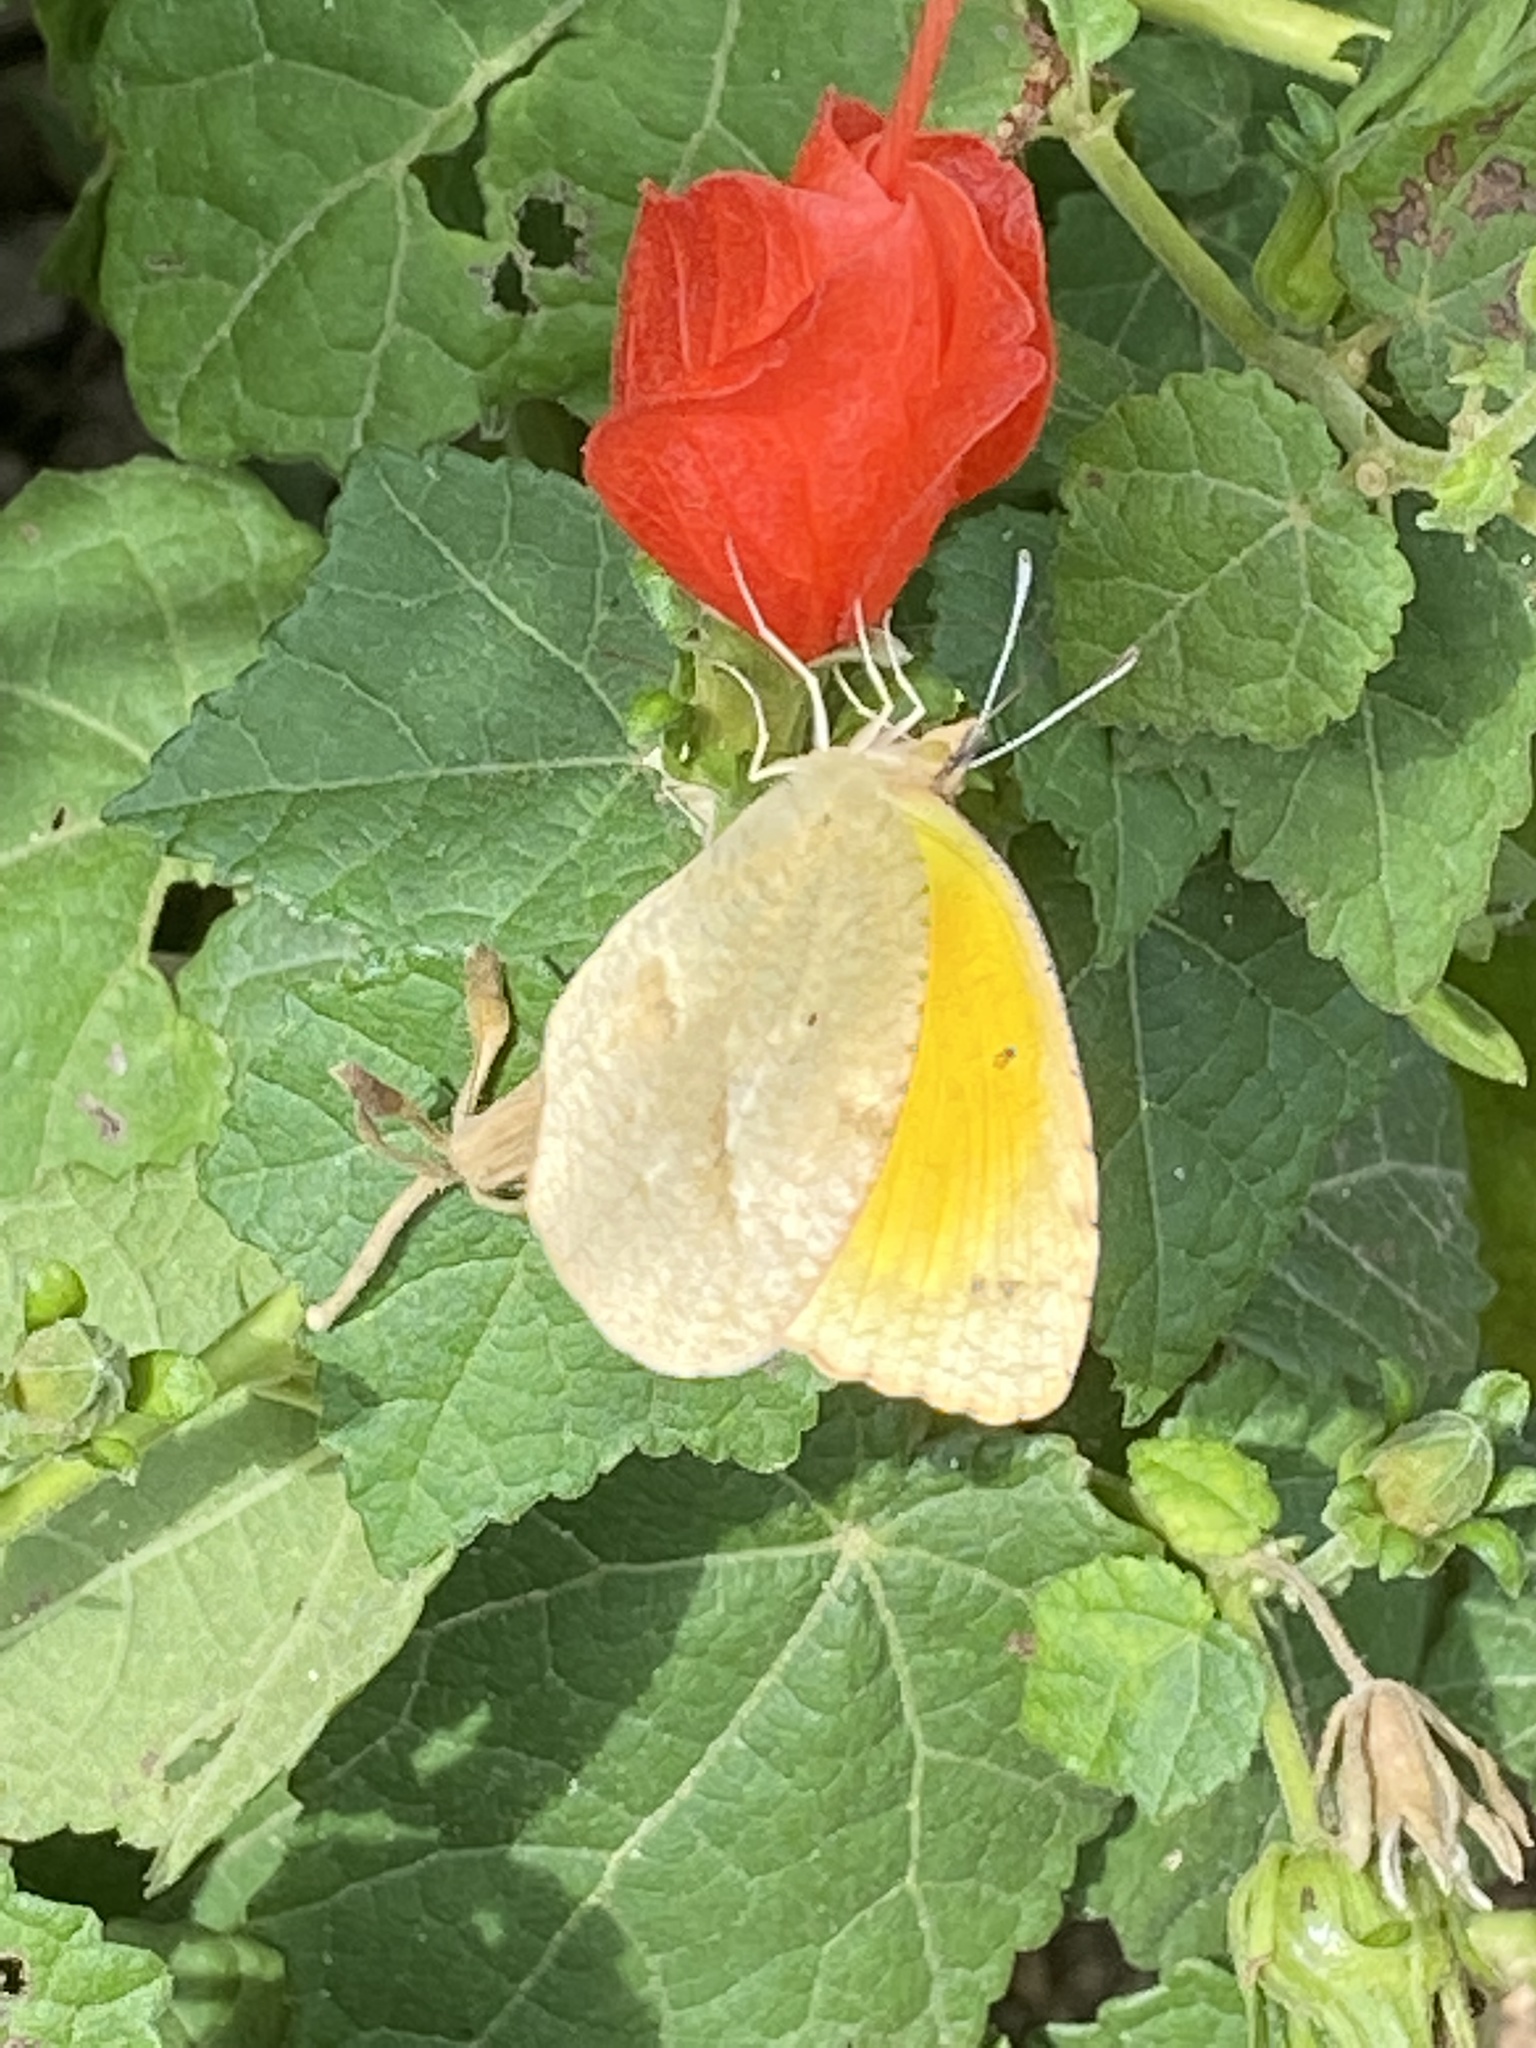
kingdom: Animalia
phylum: Arthropoda
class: Insecta
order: Lepidoptera
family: Pieridae
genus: Abaeis
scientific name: Abaeis nicippe
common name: Sleepy orange
